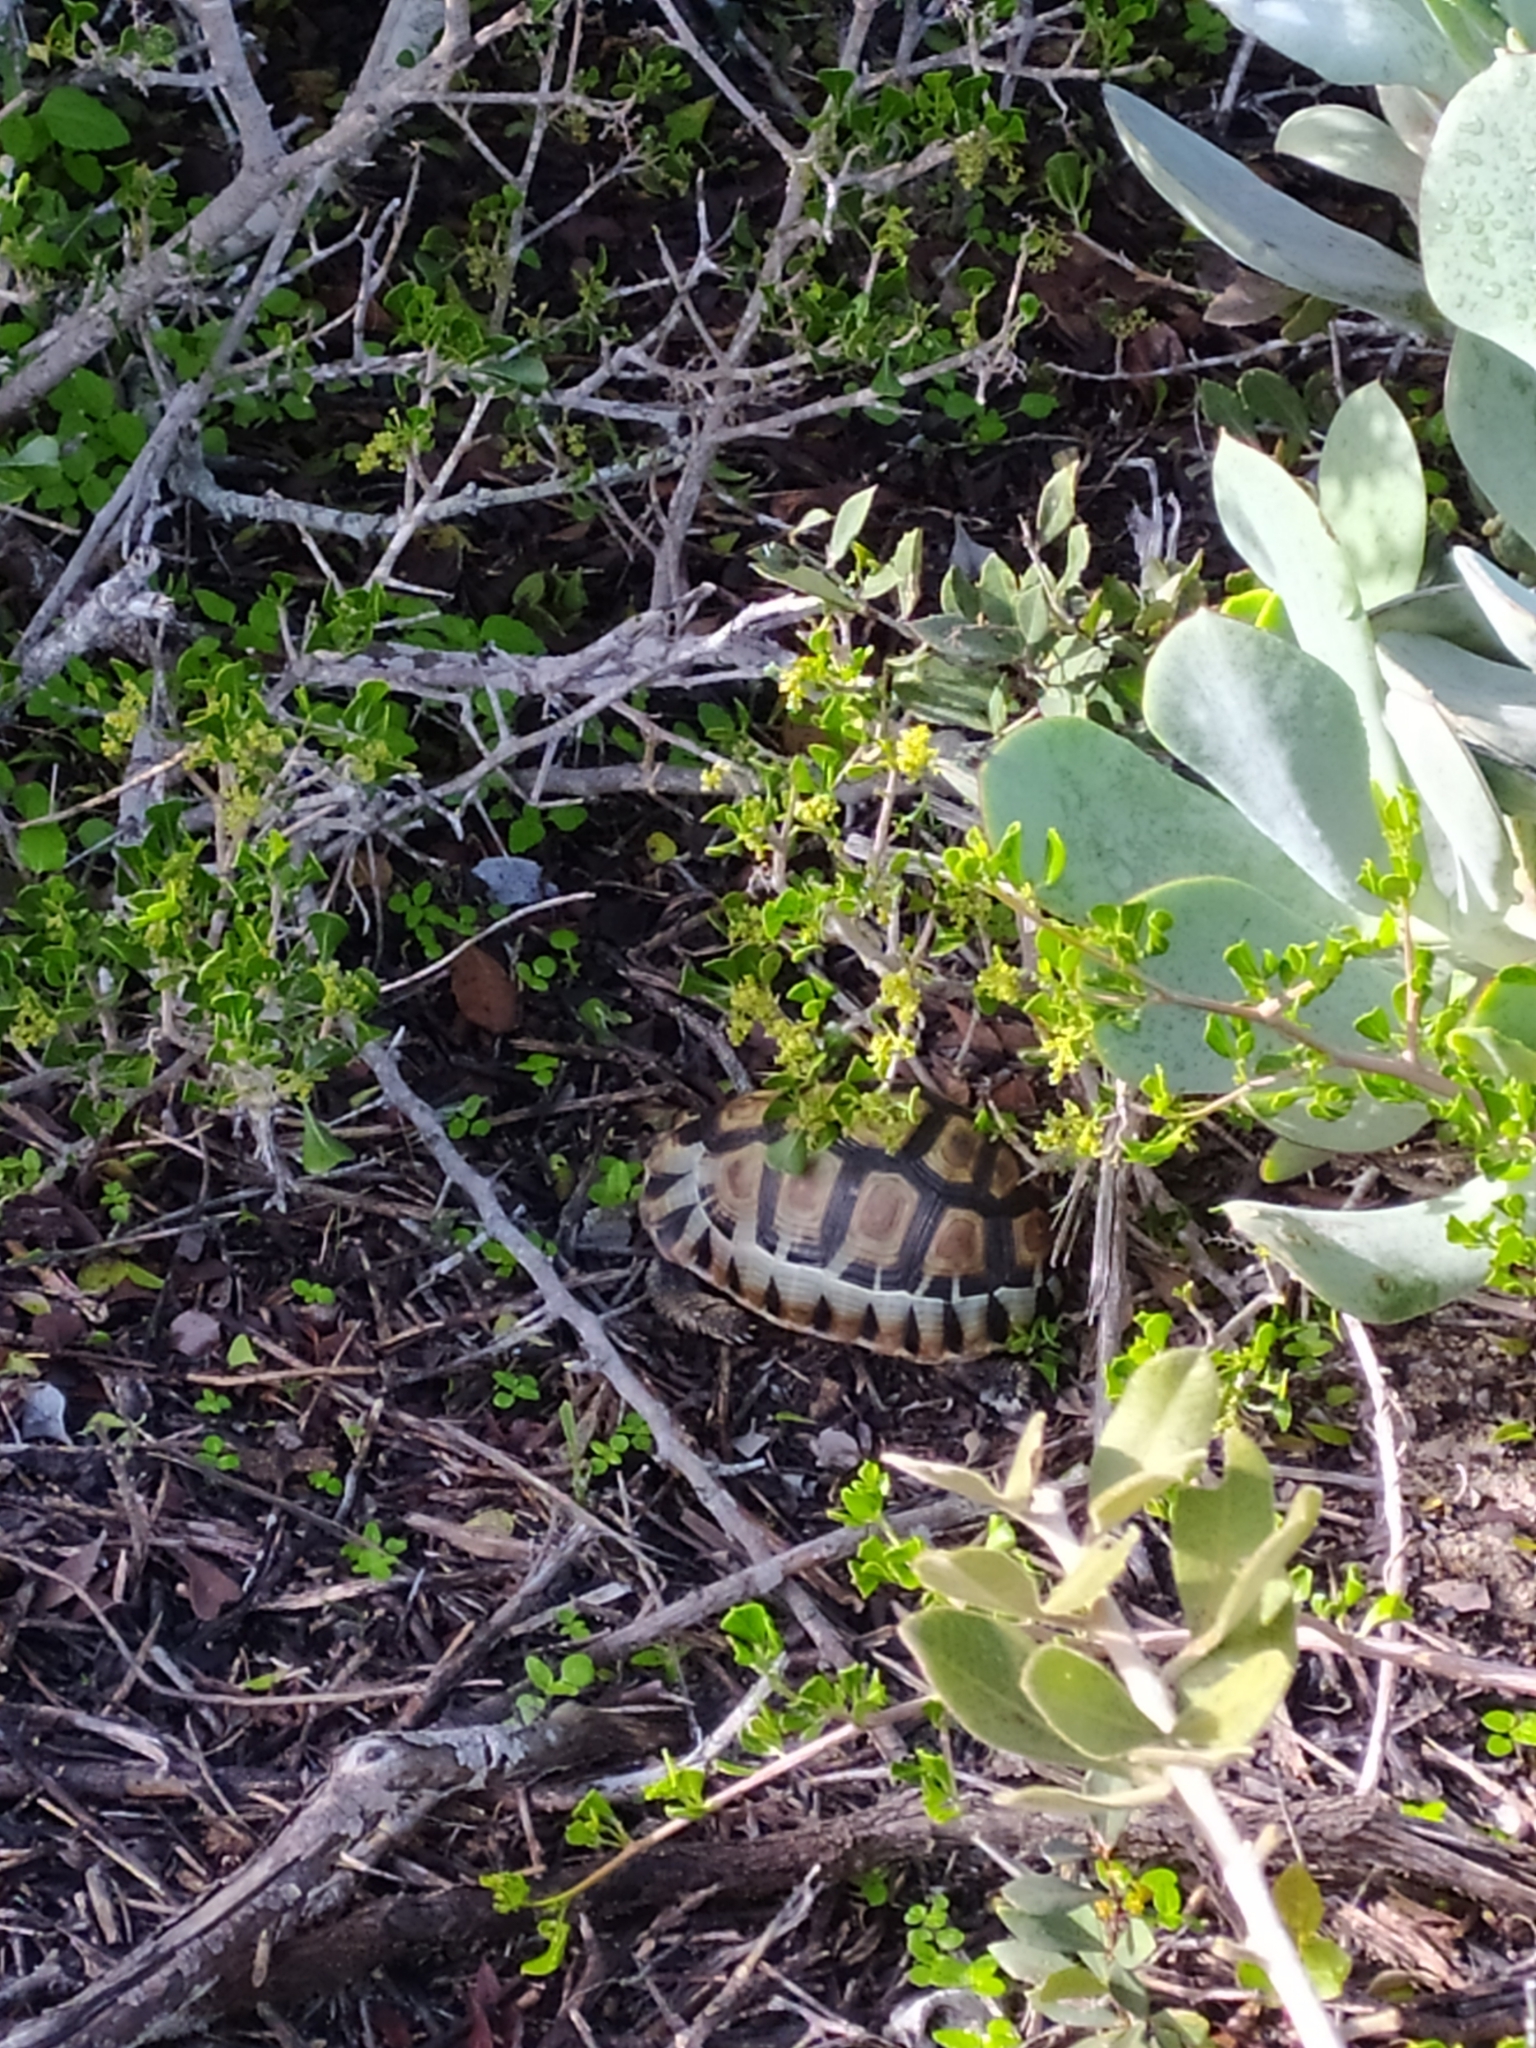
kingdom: Animalia
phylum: Chordata
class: Testudines
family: Testudinidae
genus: Chersina
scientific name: Chersina angulata
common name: South african bowsprit tortoise
